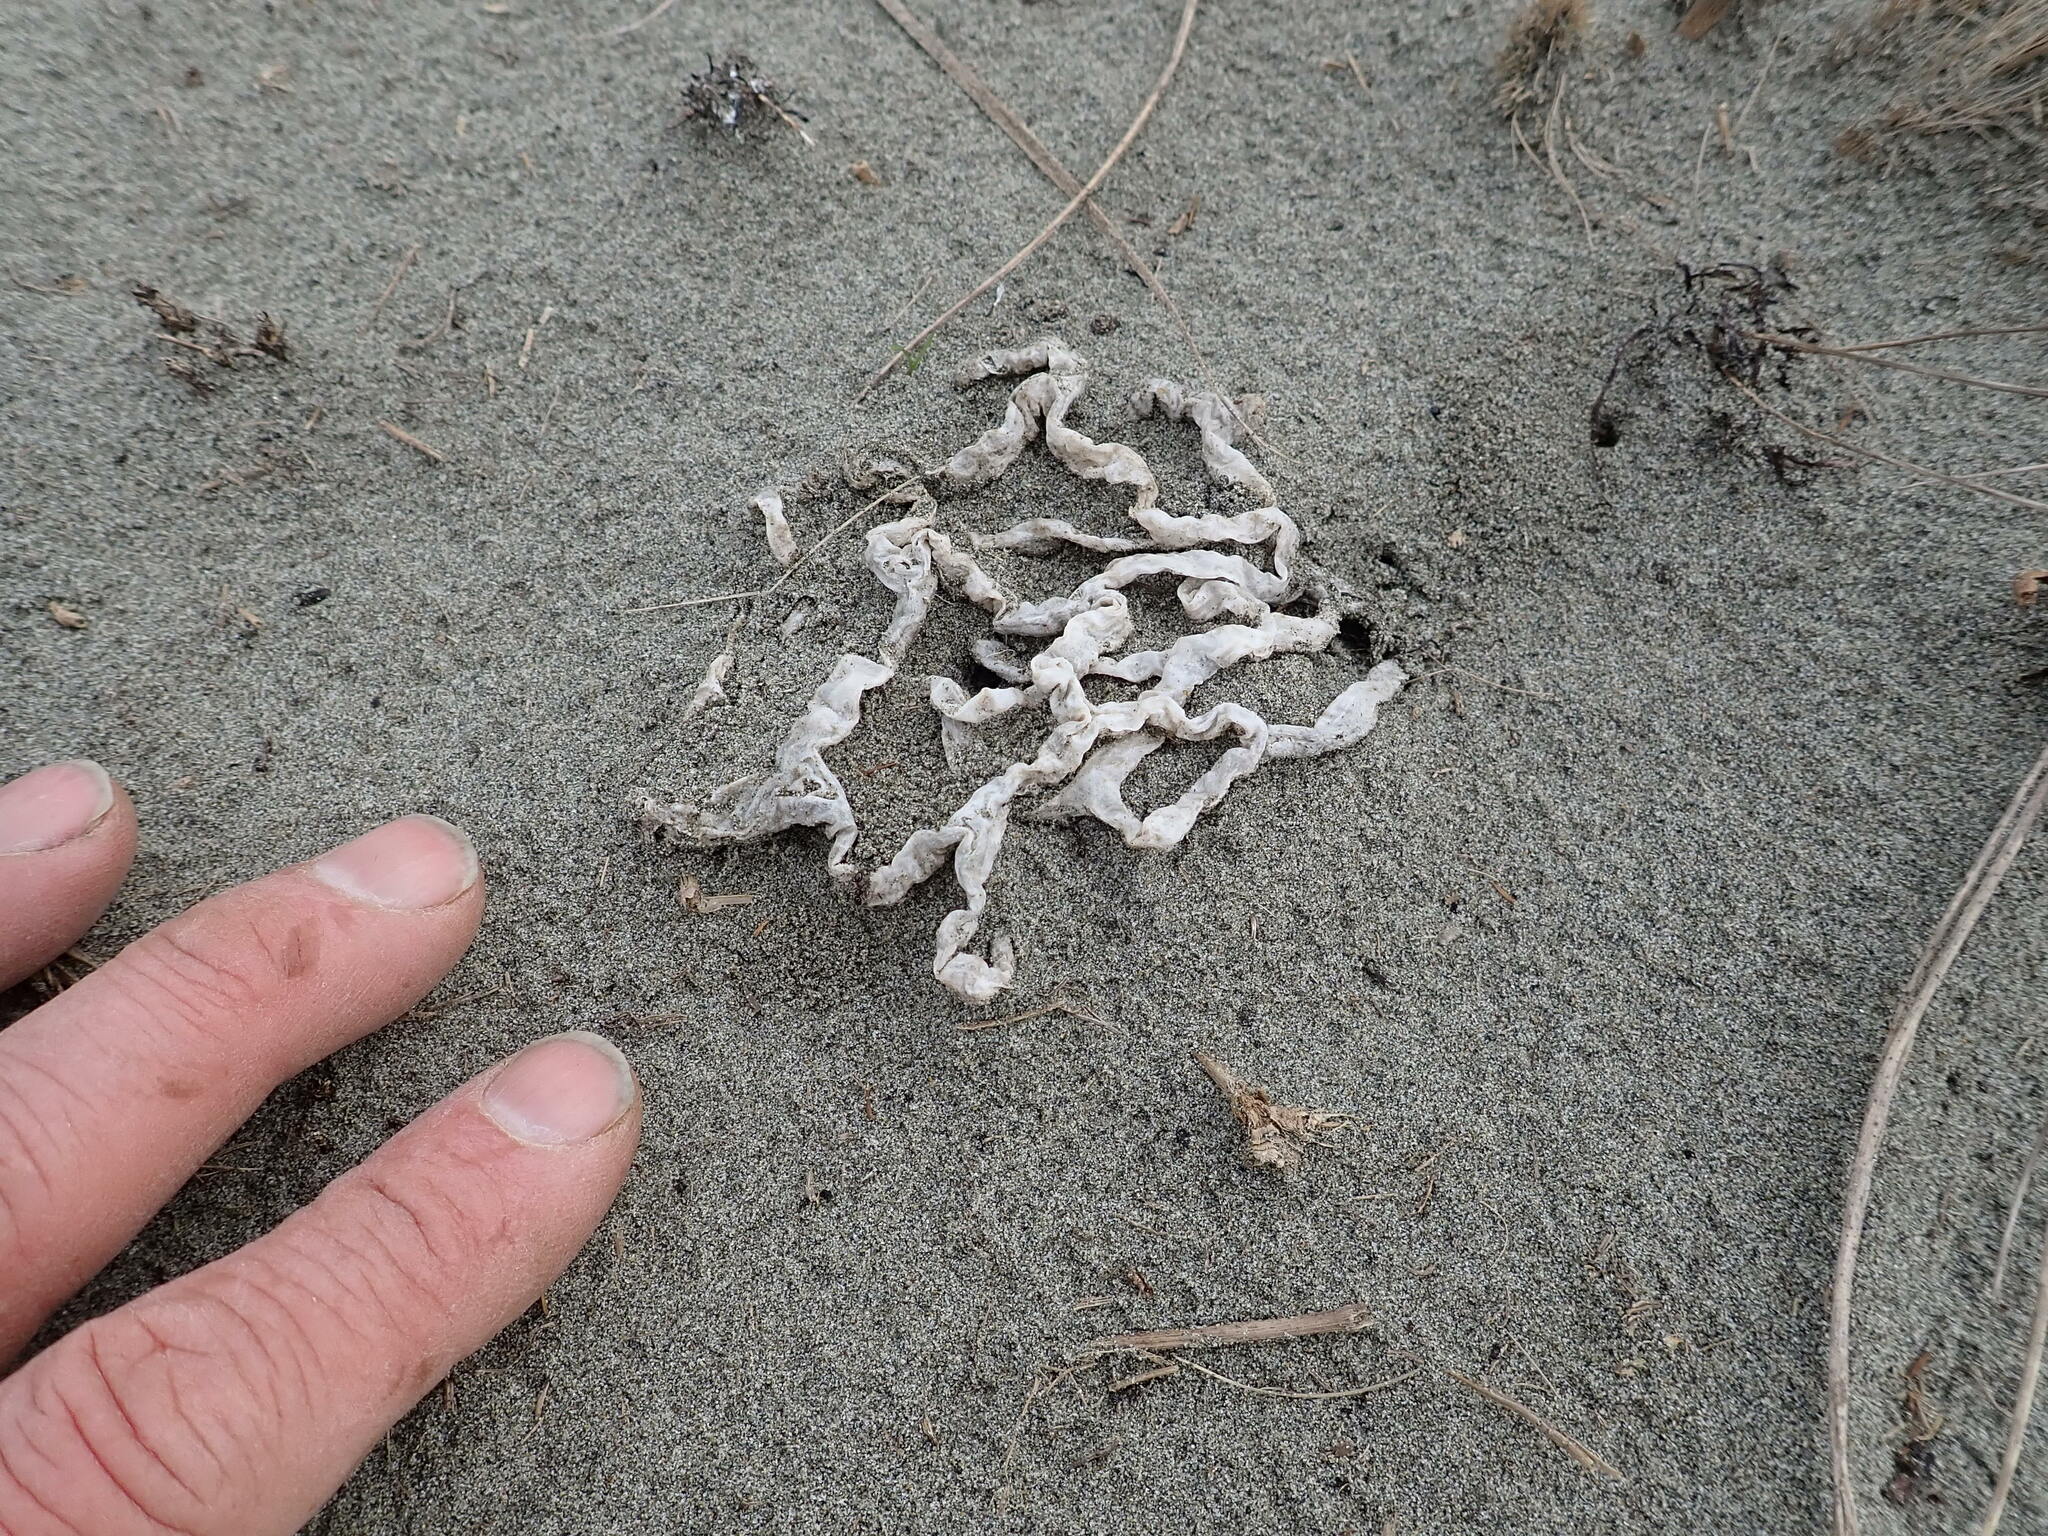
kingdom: Fungi
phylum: Basidiomycota
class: Agaricomycetes
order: Phallales
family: Phallaceae
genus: Ileodictyon
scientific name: Ileodictyon cibarium
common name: Basket fungus
